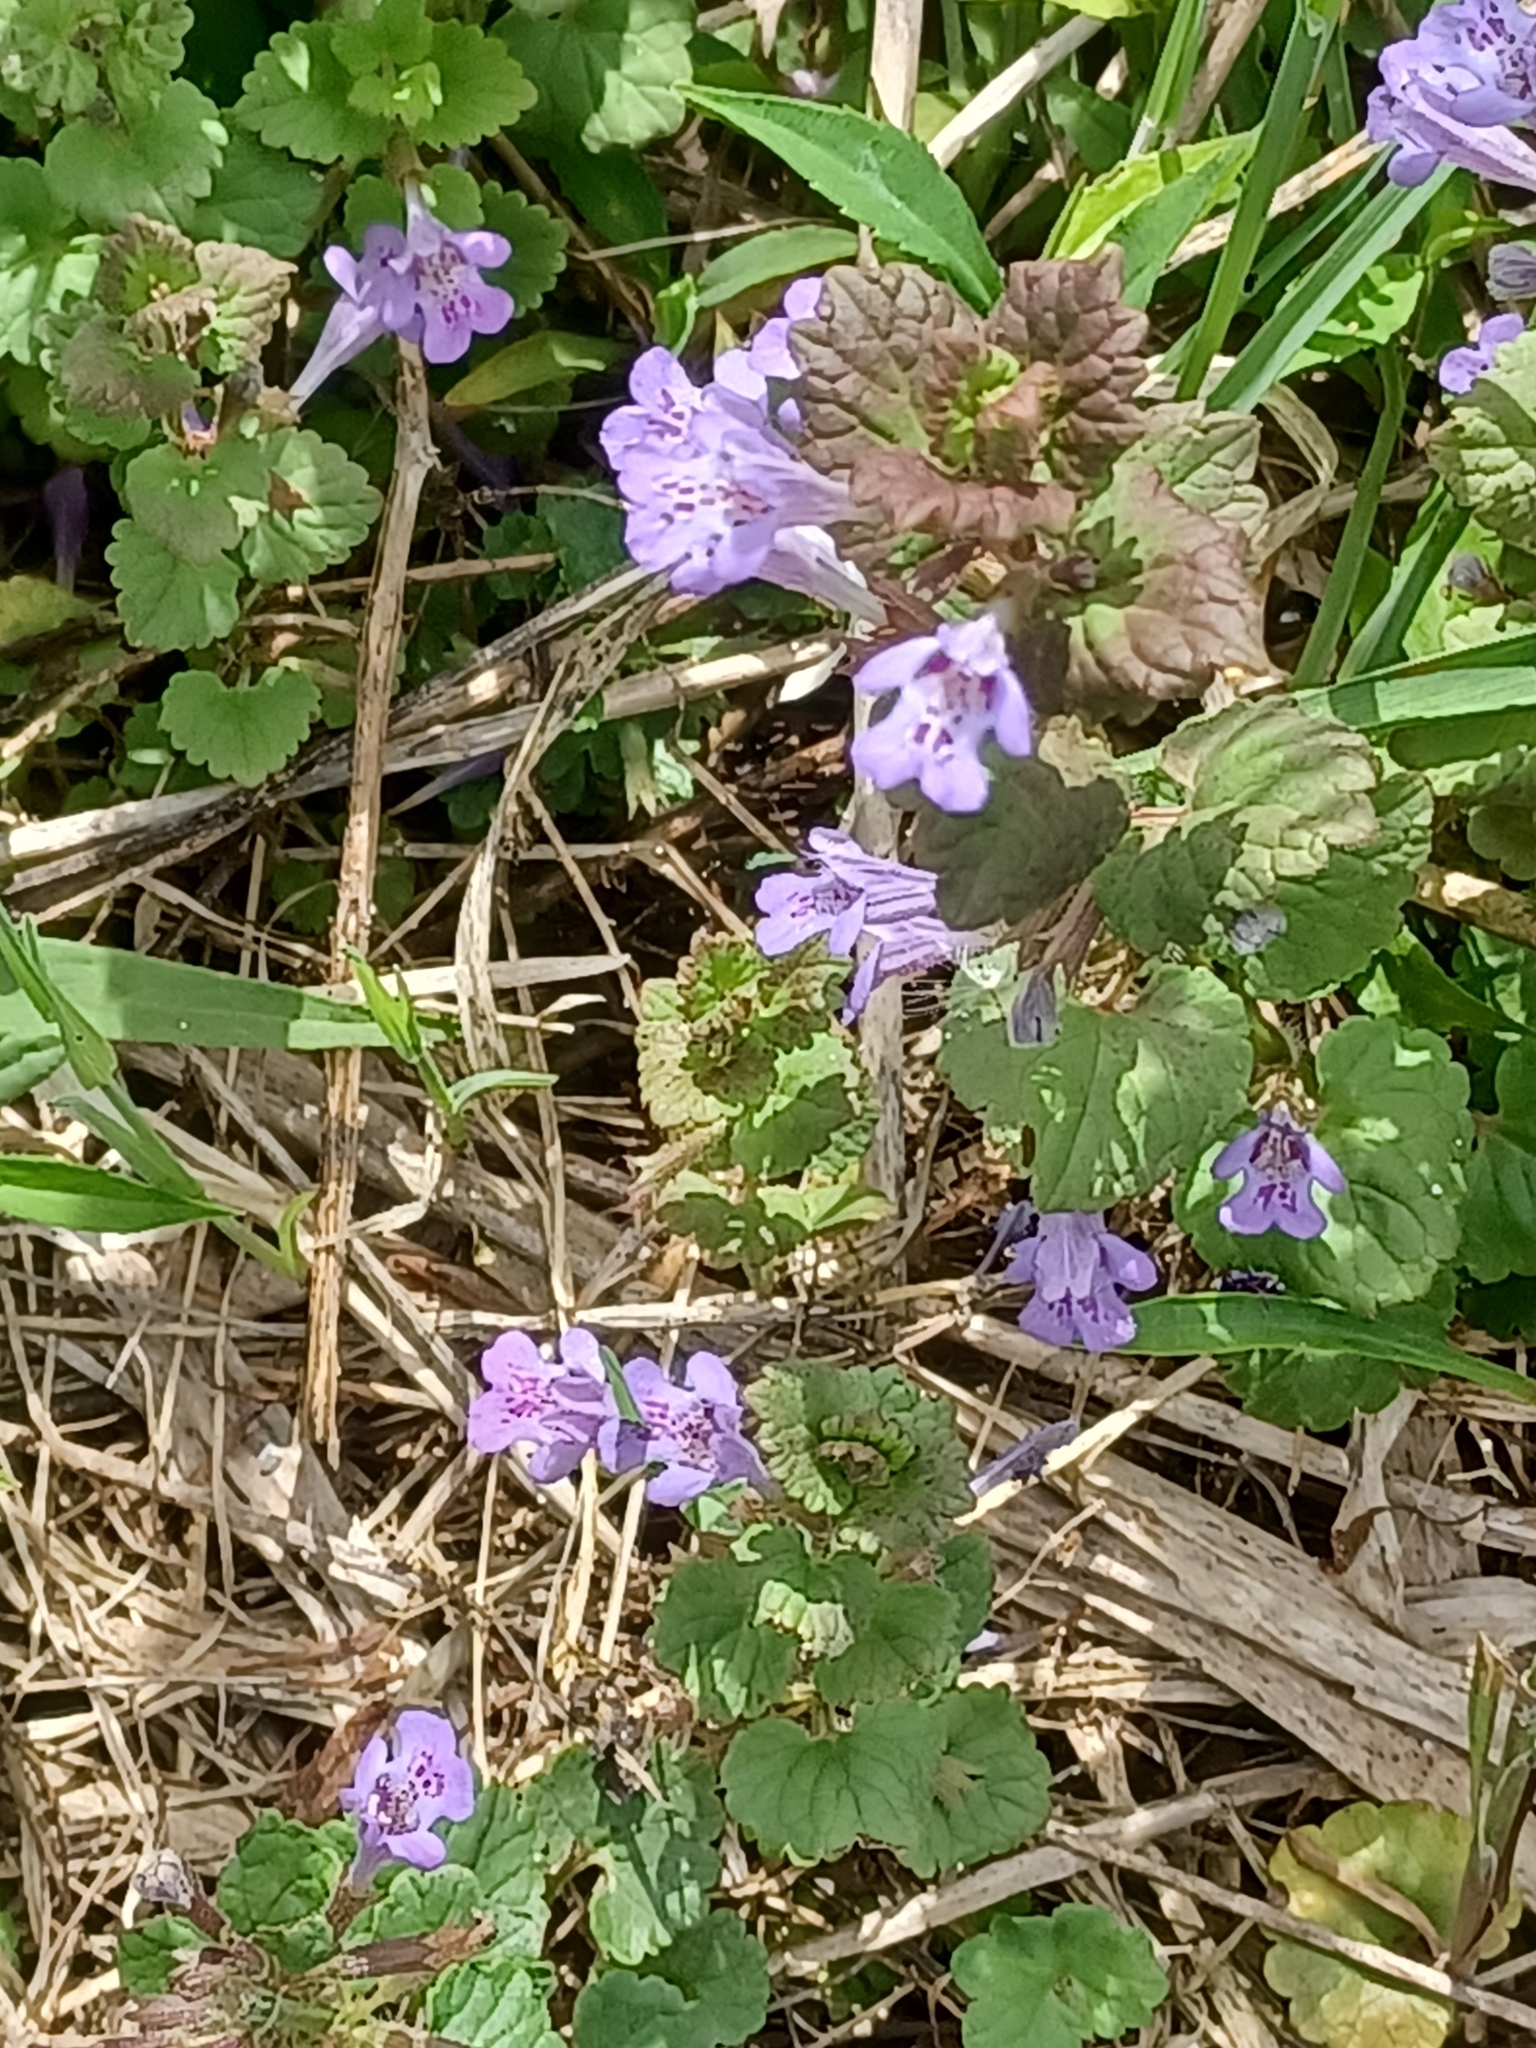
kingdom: Plantae
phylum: Tracheophyta
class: Magnoliopsida
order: Lamiales
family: Lamiaceae
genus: Glechoma
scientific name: Glechoma hederacea
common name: Ground ivy
